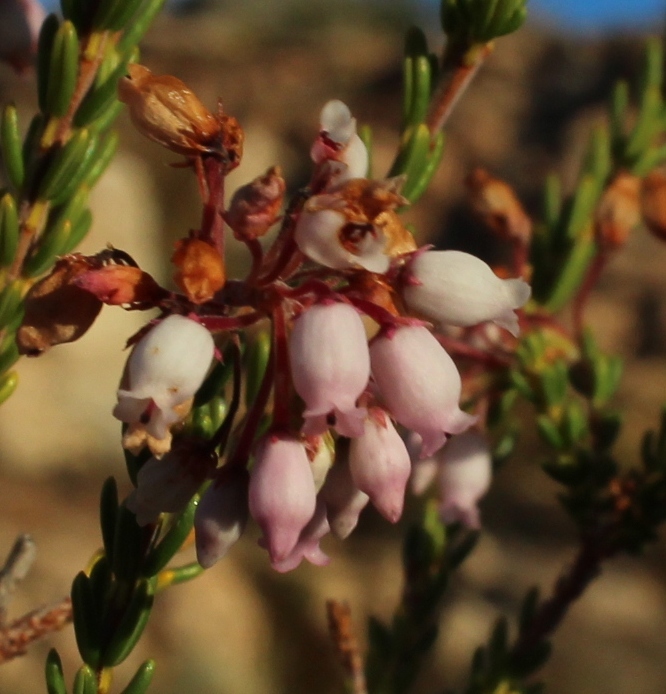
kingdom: Plantae
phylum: Tracheophyta
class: Magnoliopsida
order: Ericales
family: Ericaceae
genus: Erica
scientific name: Erica verecunda
